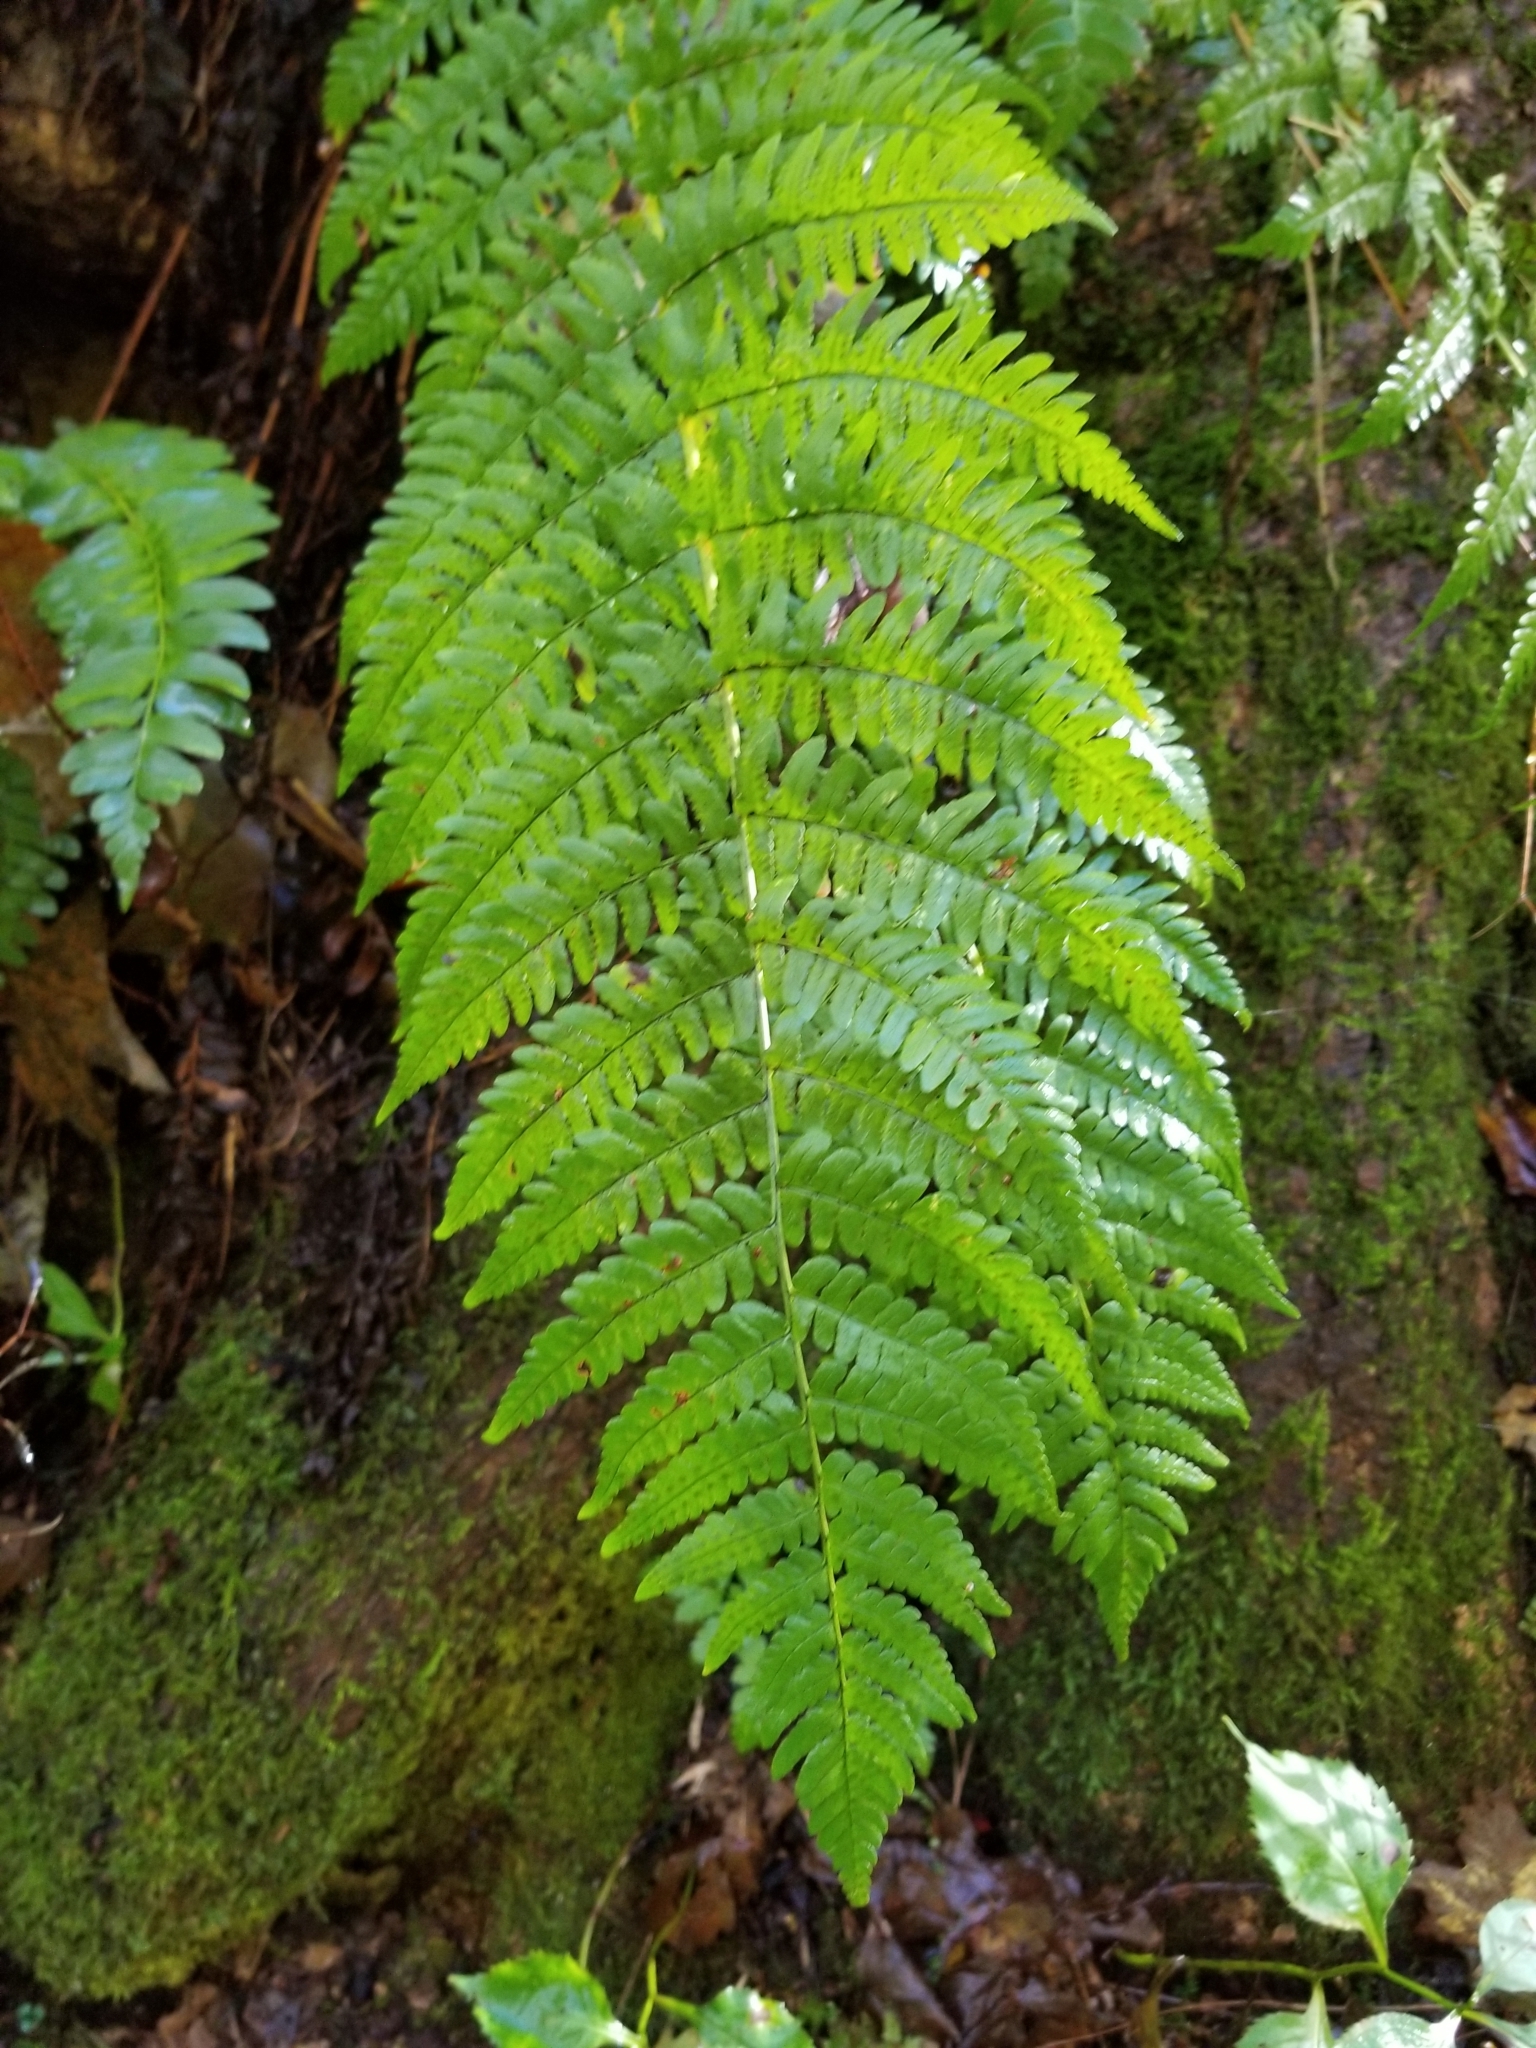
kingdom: Plantae
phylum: Tracheophyta
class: Polypodiopsida
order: Polypodiales
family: Dryopteridaceae
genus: Dryopteris
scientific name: Dryopteris marginalis
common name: Marginal wood fern
